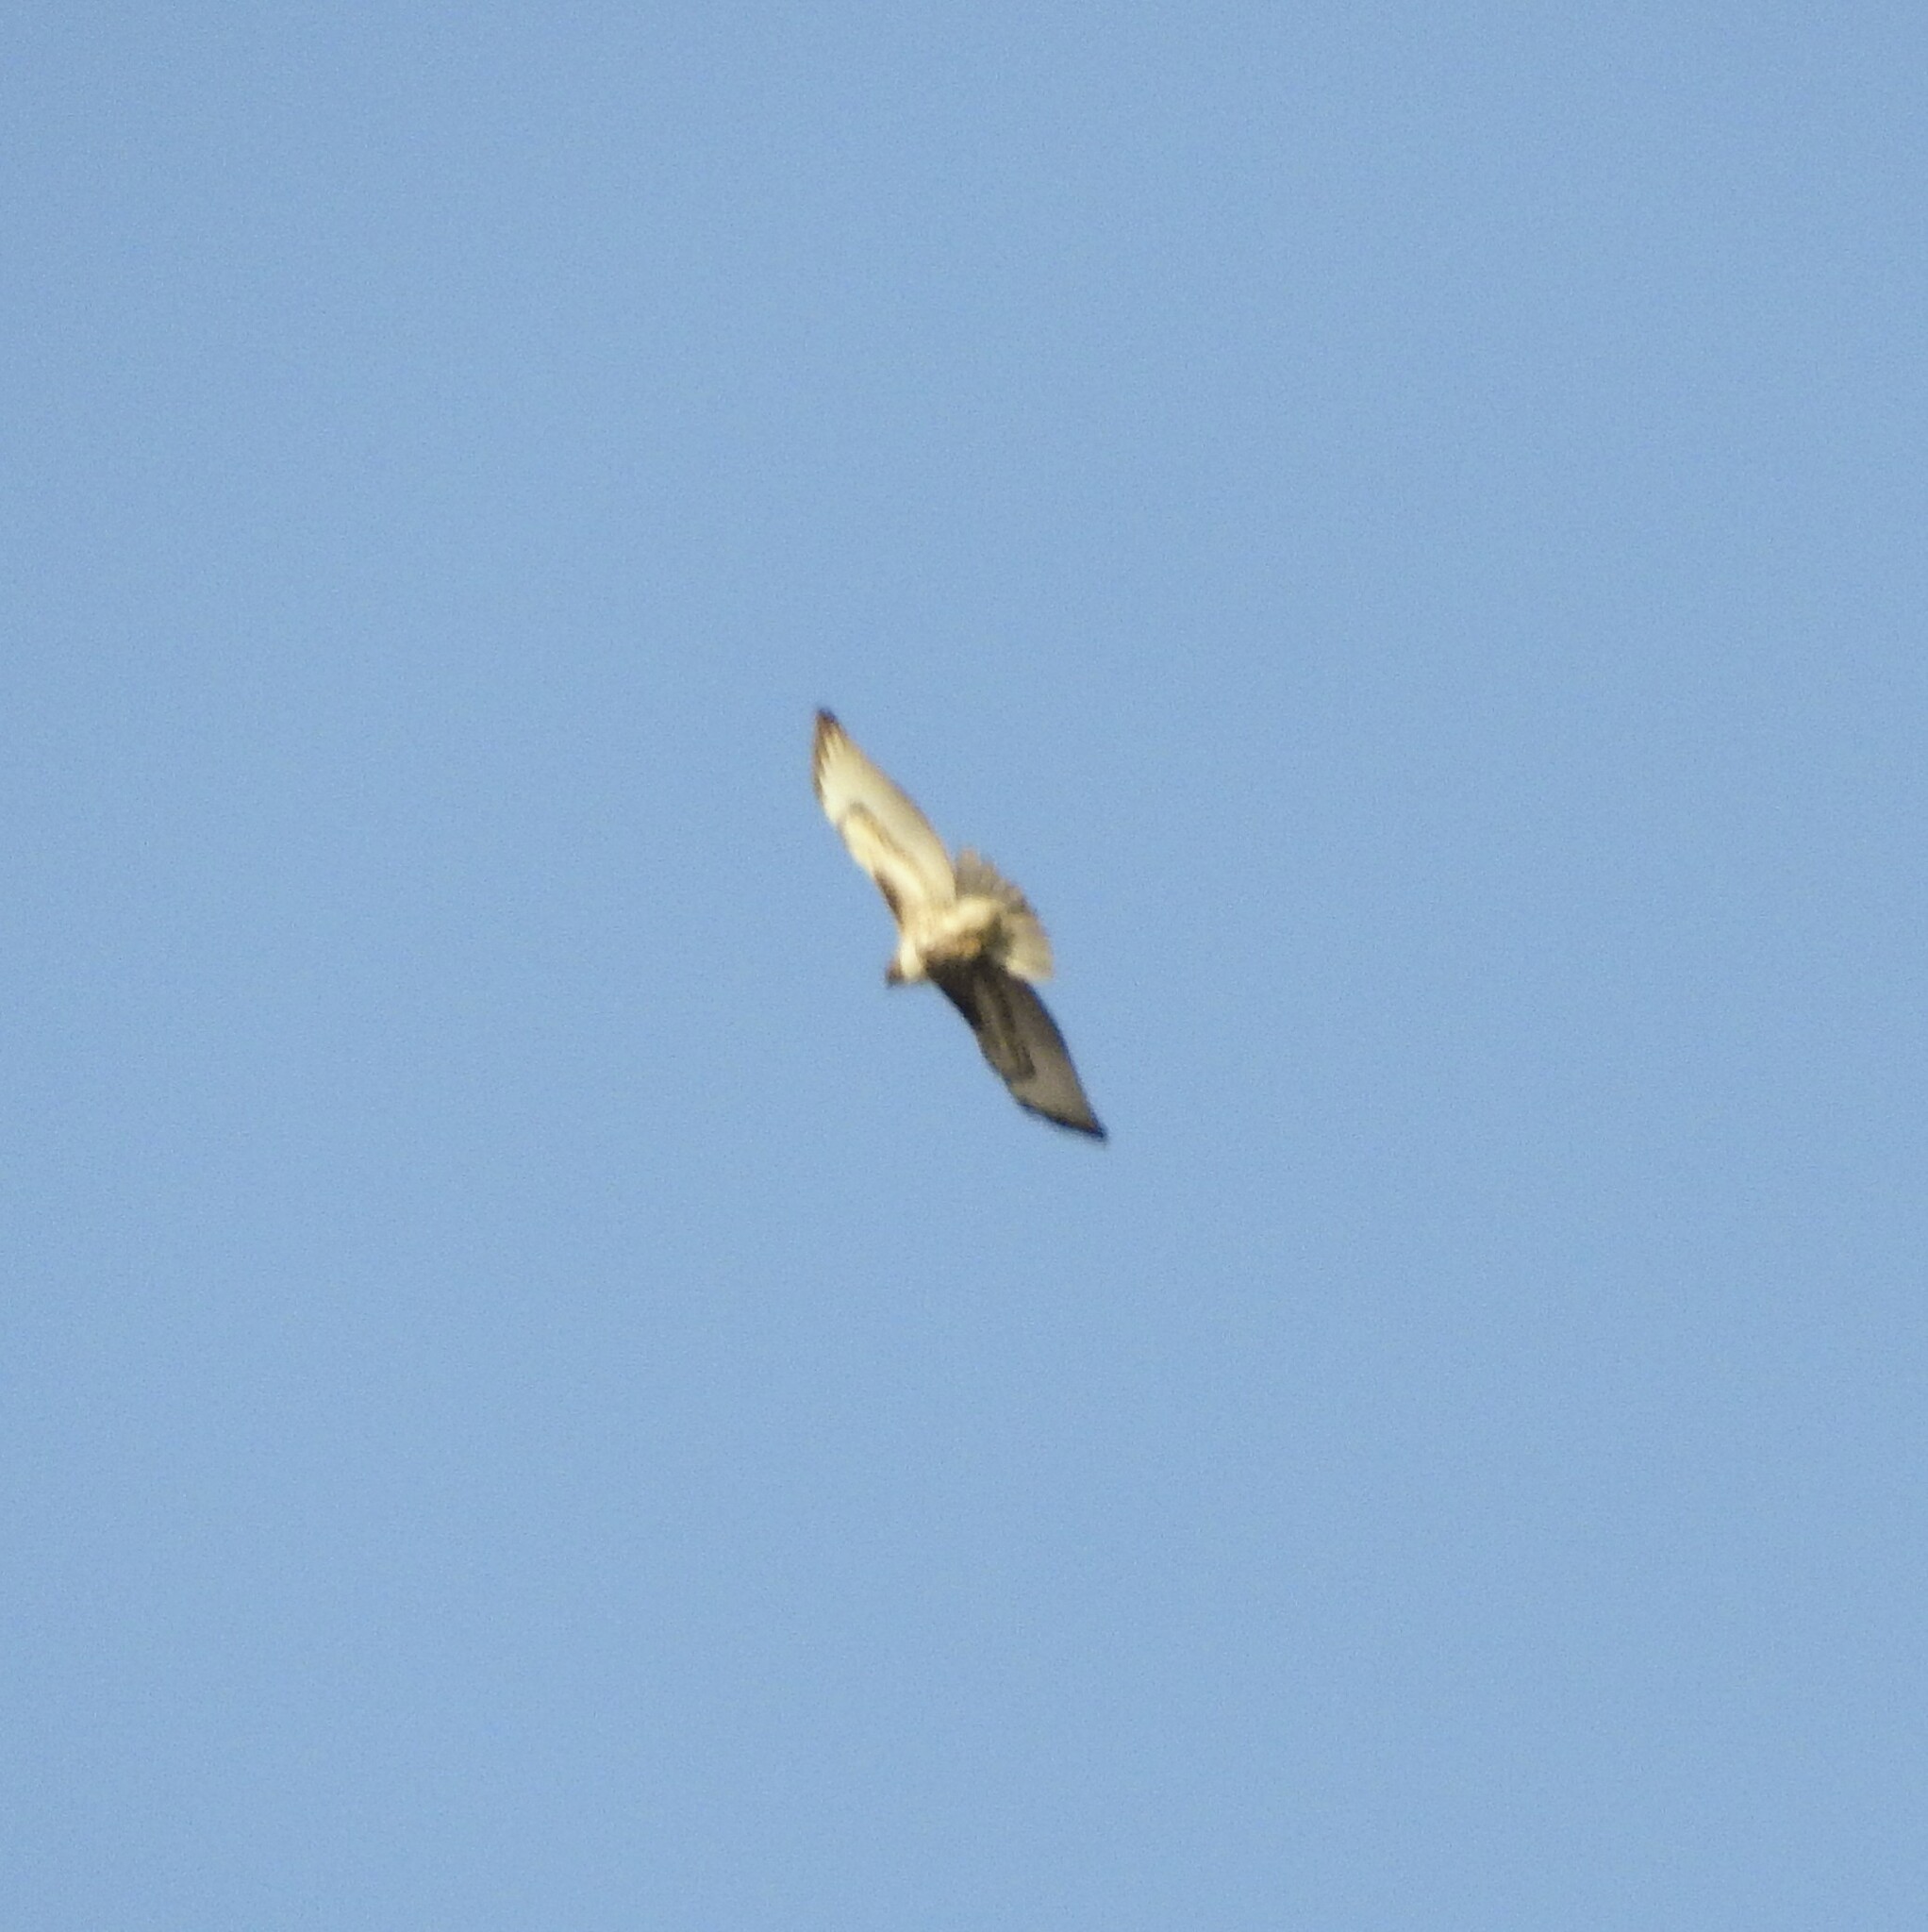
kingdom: Animalia
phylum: Chordata
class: Aves
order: Accipitriformes
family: Accipitridae
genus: Buteo
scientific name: Buteo jamaicensis
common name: Red-tailed hawk
